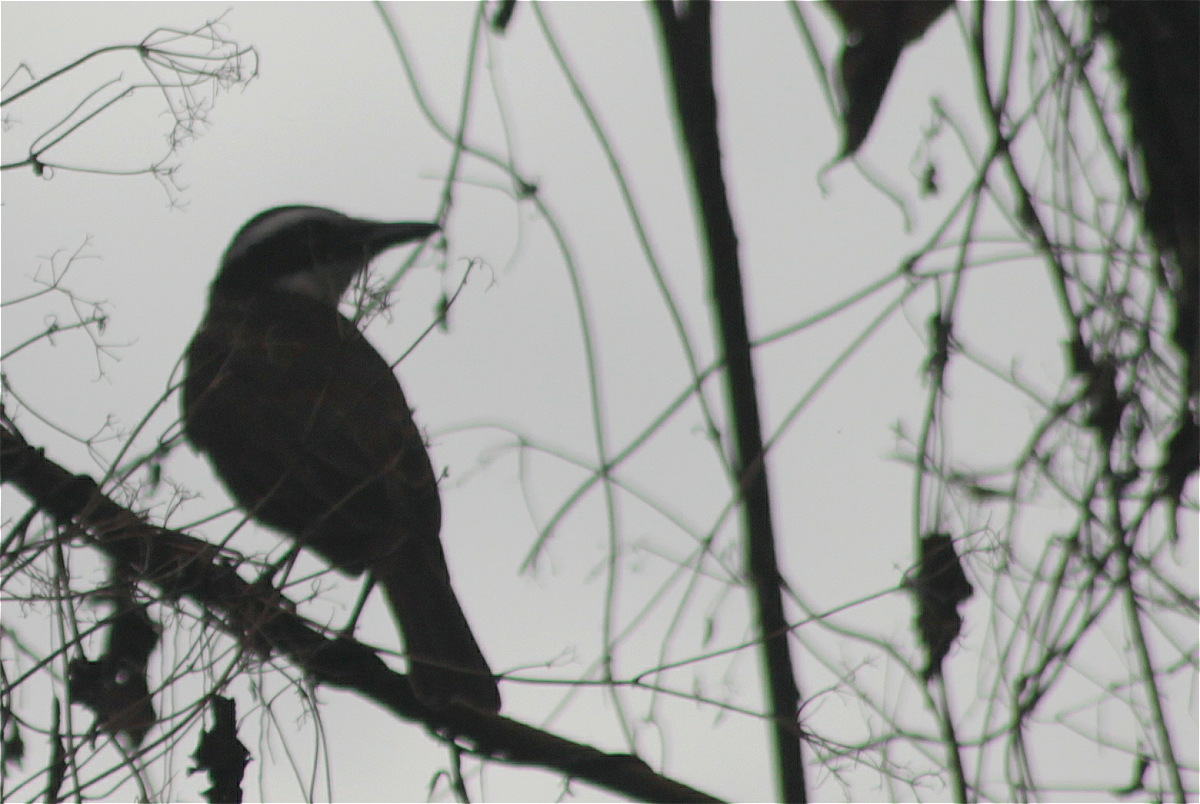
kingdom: Animalia
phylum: Chordata
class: Aves
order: Passeriformes
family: Tyrannidae
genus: Pitangus
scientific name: Pitangus sulphuratus
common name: Great kiskadee
